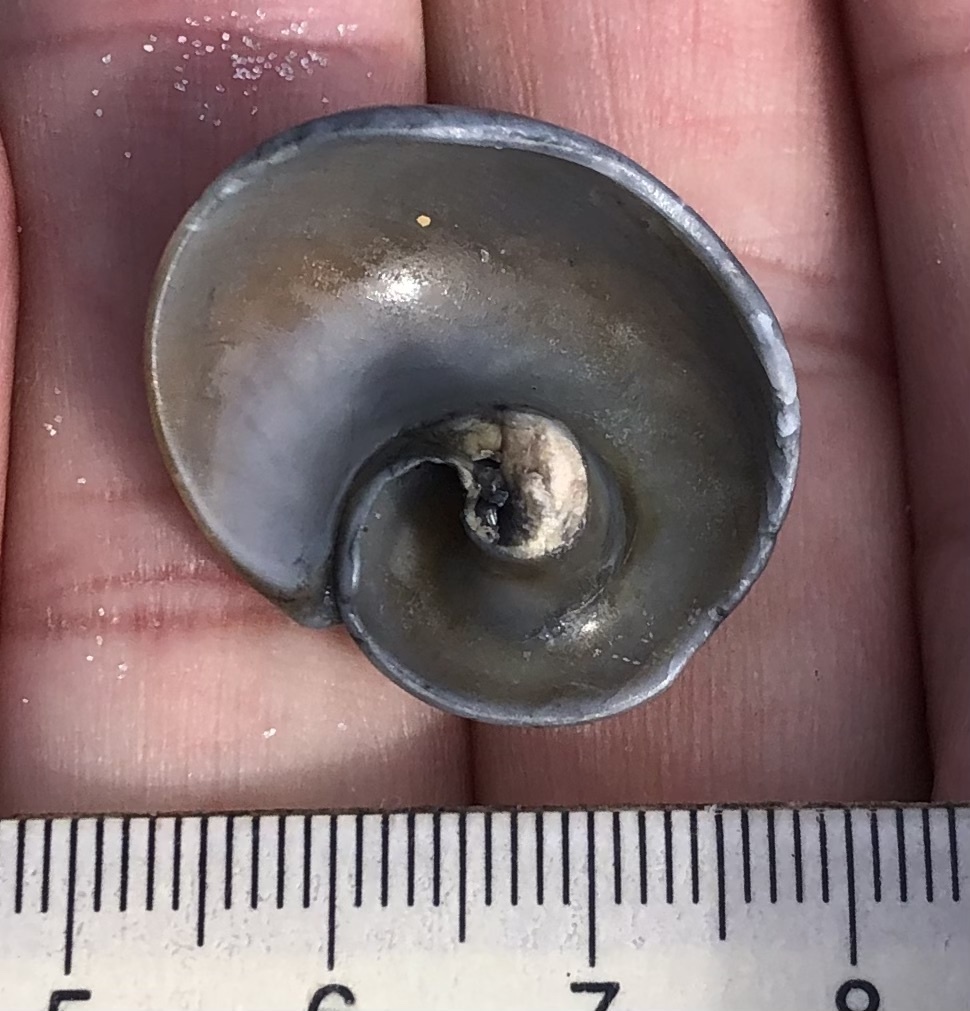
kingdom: Animalia
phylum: Mollusca
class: Gastropoda
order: Littorinimorpha
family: Naticidae
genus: Neverita
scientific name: Neverita duplicata
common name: Lobed moonsnail
